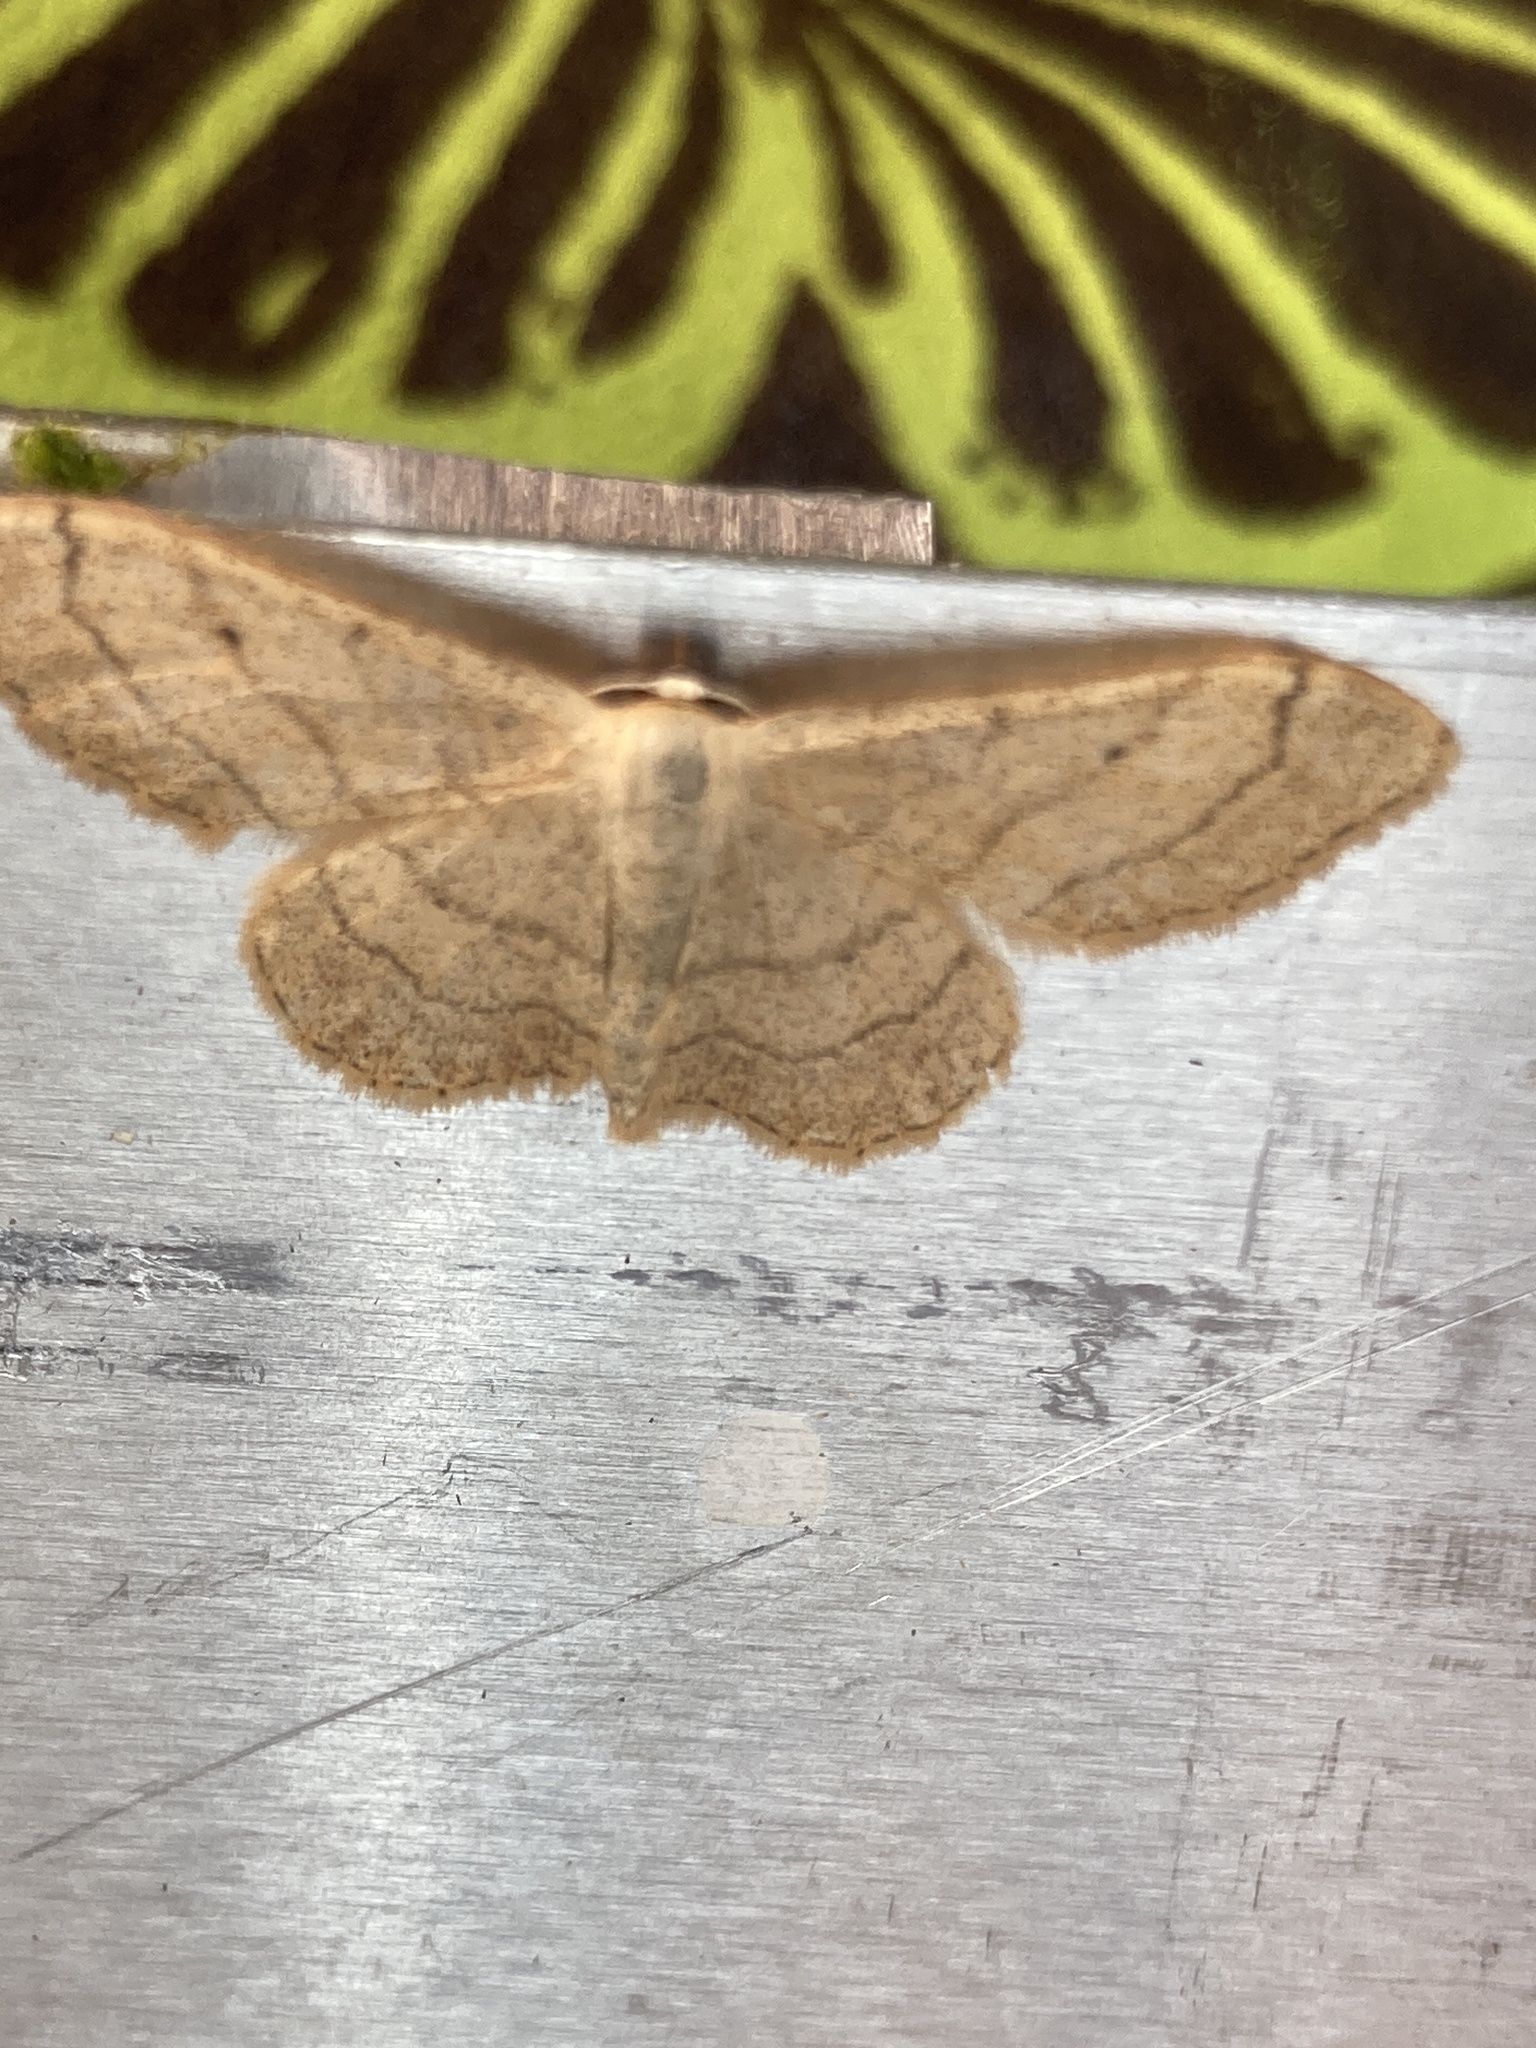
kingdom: Animalia
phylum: Arthropoda
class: Insecta
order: Lepidoptera
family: Geometridae
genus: Idaea
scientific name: Idaea aversata
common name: Riband wave
